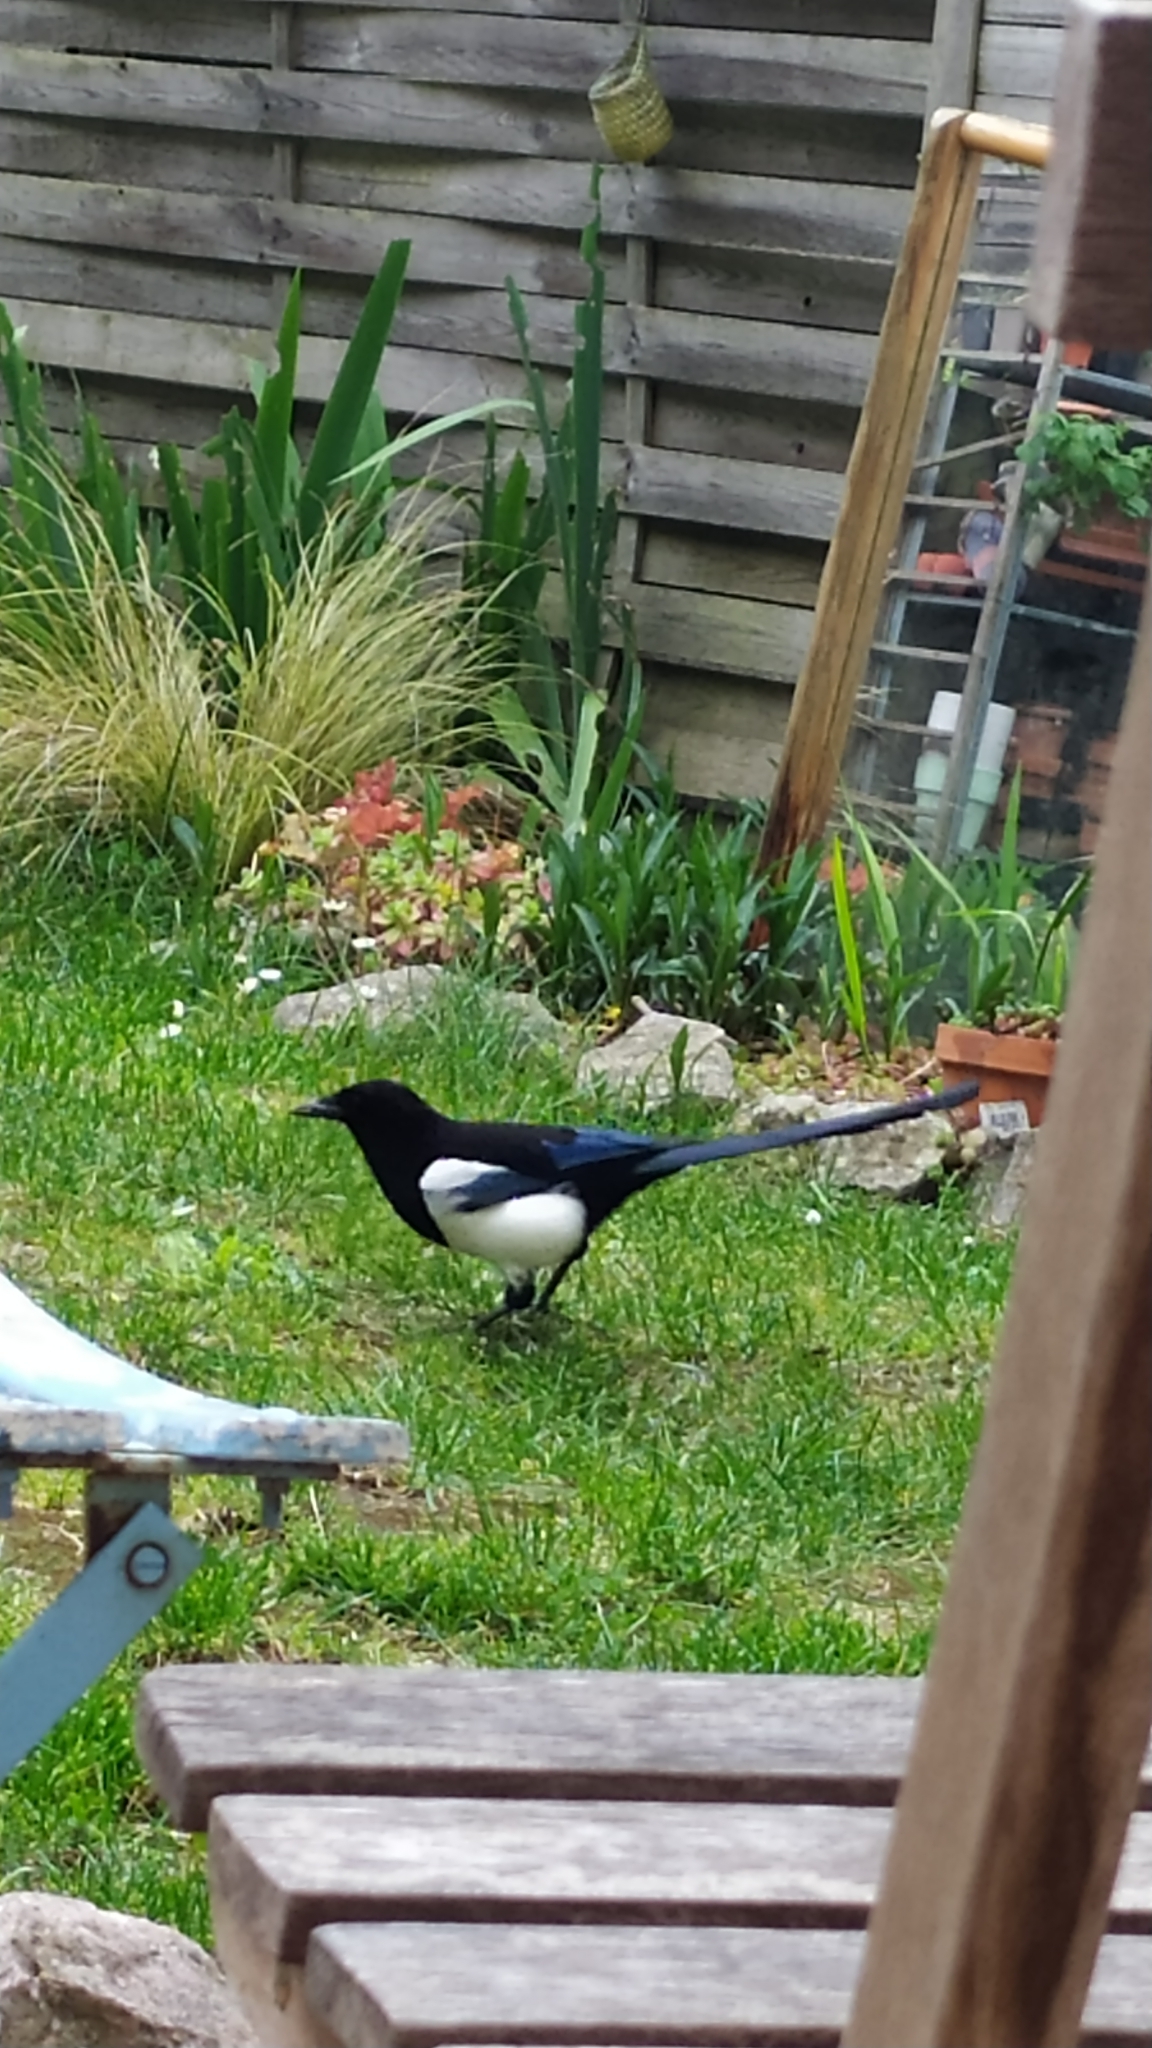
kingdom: Animalia
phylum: Chordata
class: Aves
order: Passeriformes
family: Corvidae
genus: Pica
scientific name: Pica pica
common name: Eurasian magpie
